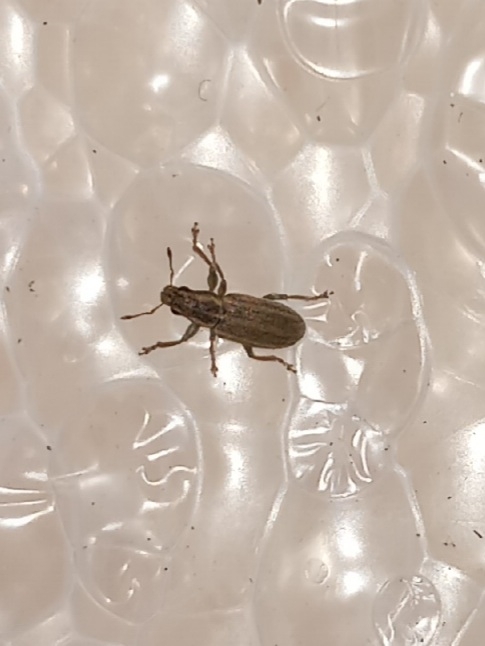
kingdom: Animalia
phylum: Arthropoda
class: Insecta
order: Coleoptera
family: Curculionidae
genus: Sitona
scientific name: Sitona lineatus
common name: Weevil
